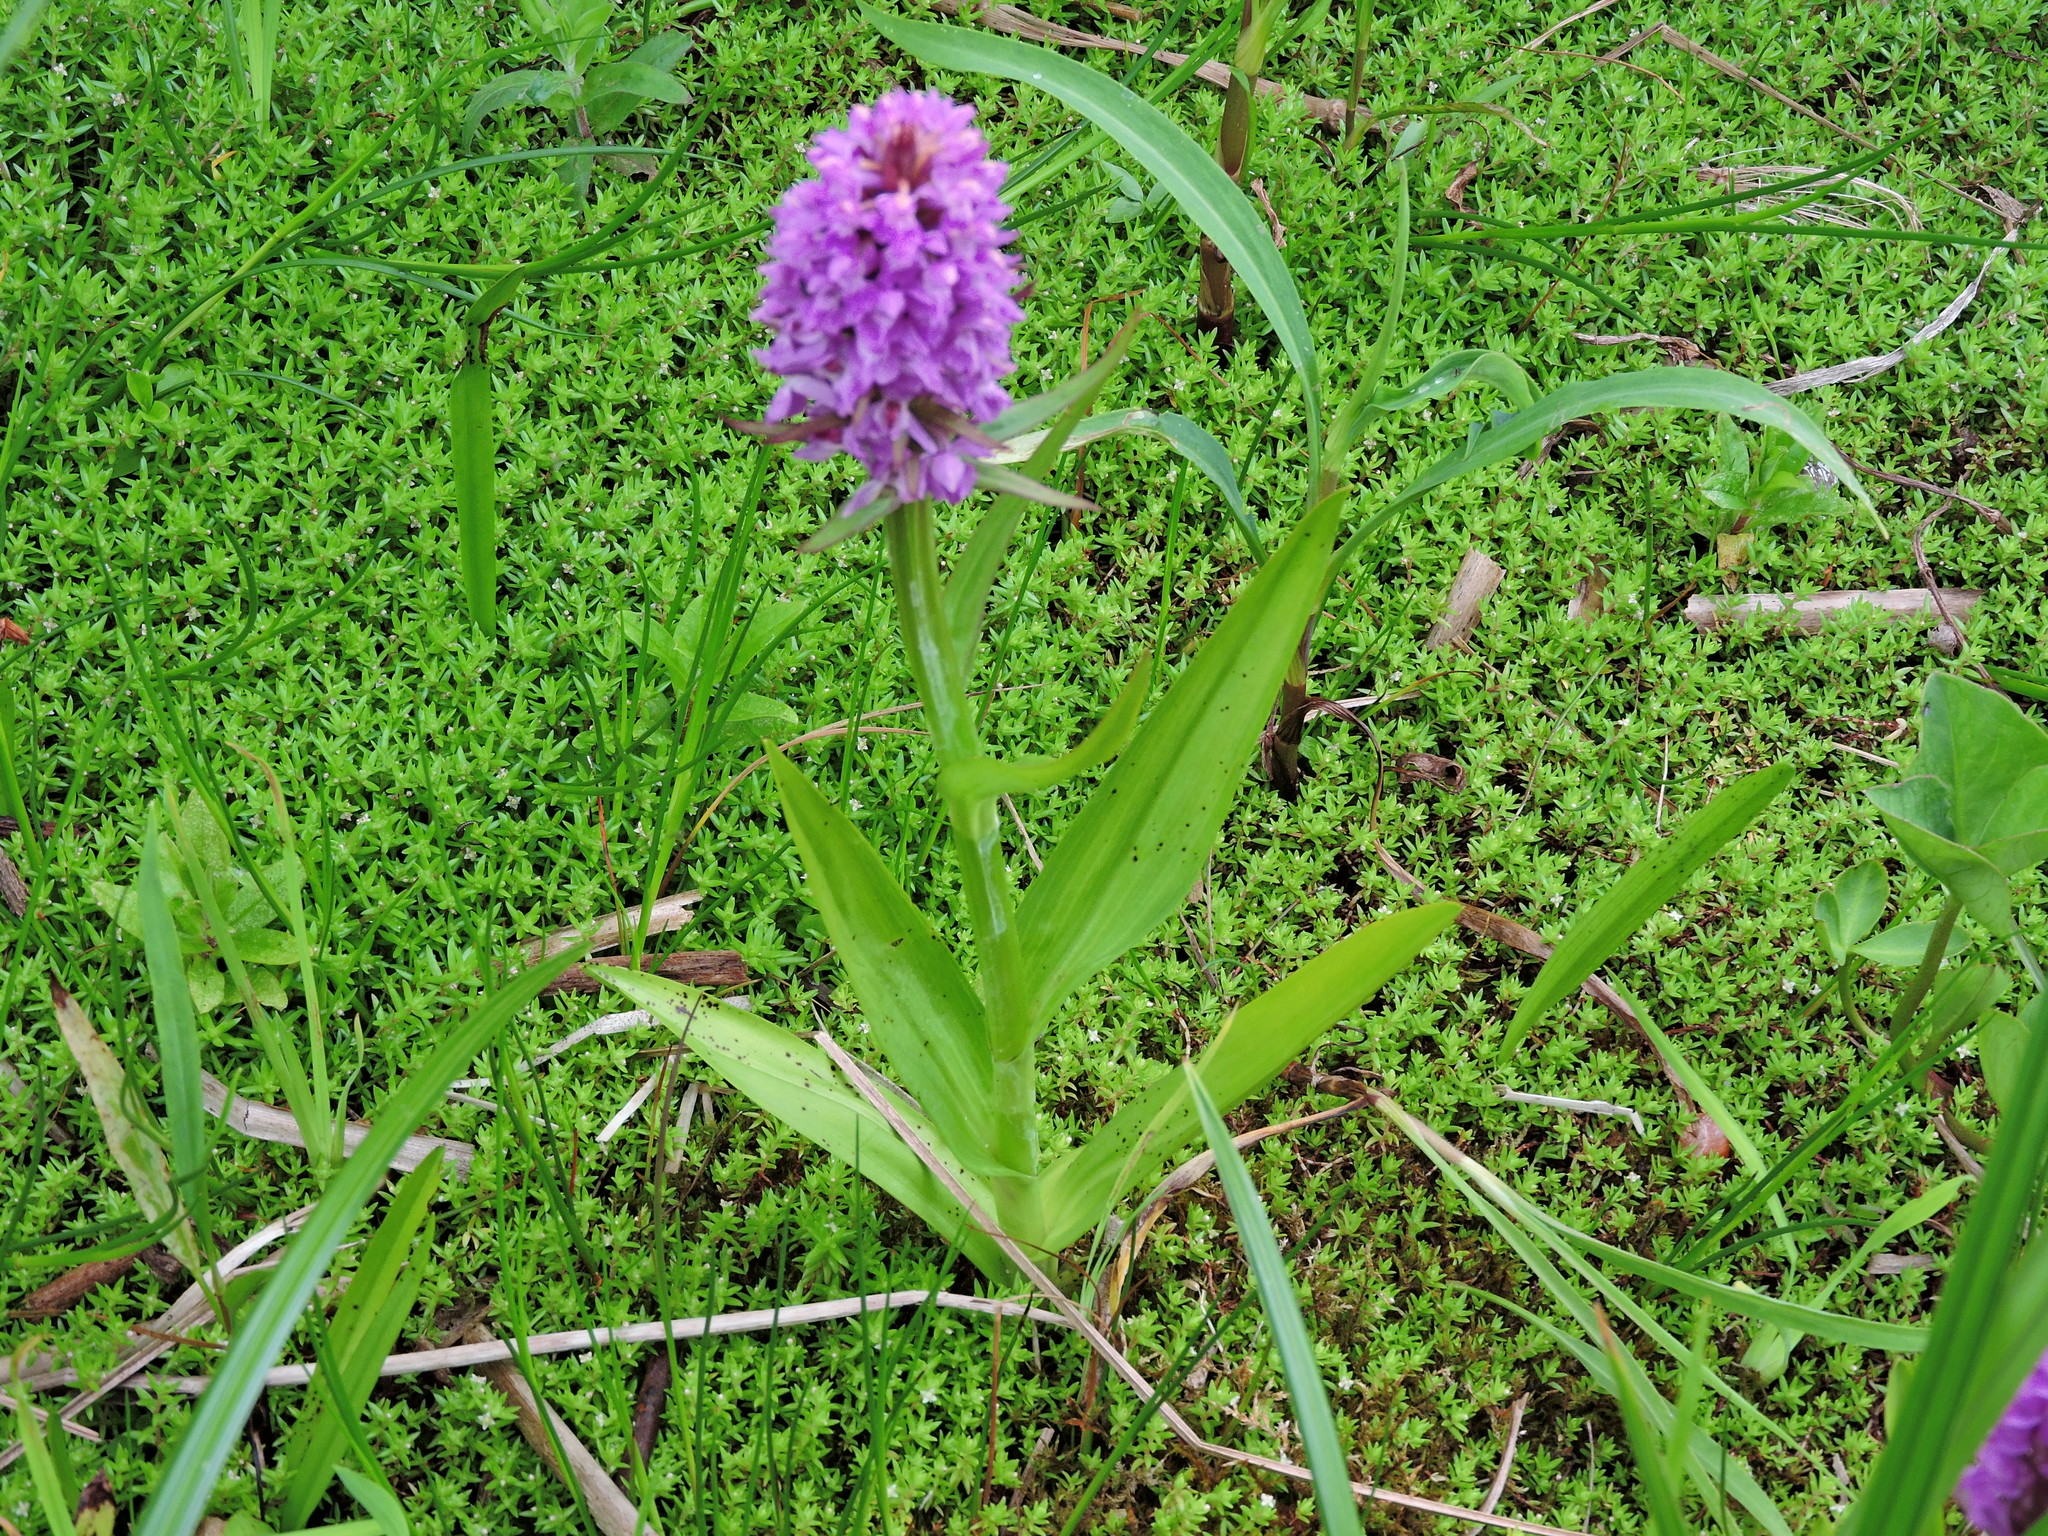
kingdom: Plantae
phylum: Tracheophyta
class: Magnoliopsida
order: Saxifragales
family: Crassulaceae
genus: Crassula
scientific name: Crassula helmsii
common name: New zealand pigmyweed
